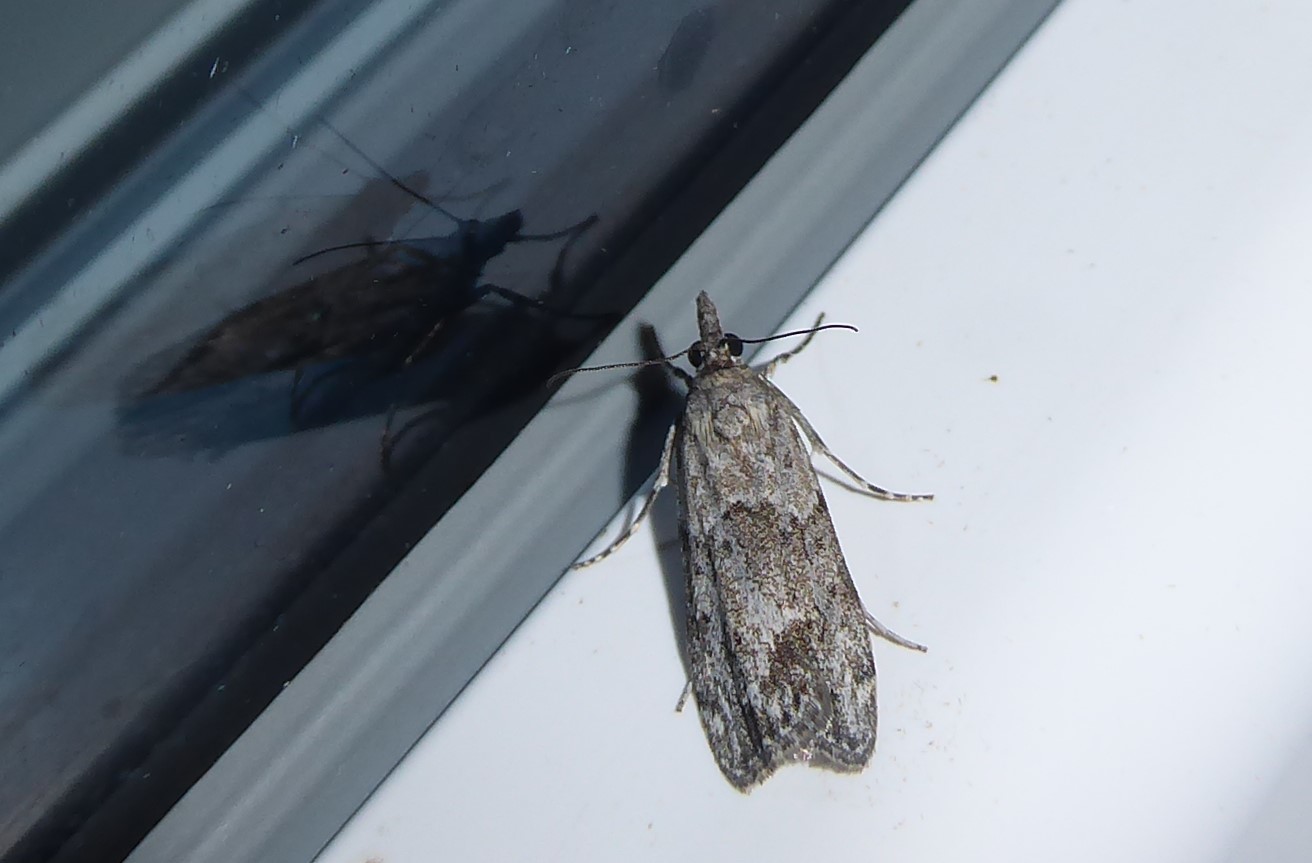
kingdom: Animalia
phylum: Arthropoda
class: Insecta
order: Lepidoptera
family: Crambidae
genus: Eudonia
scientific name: Eudonia rakaiensis
